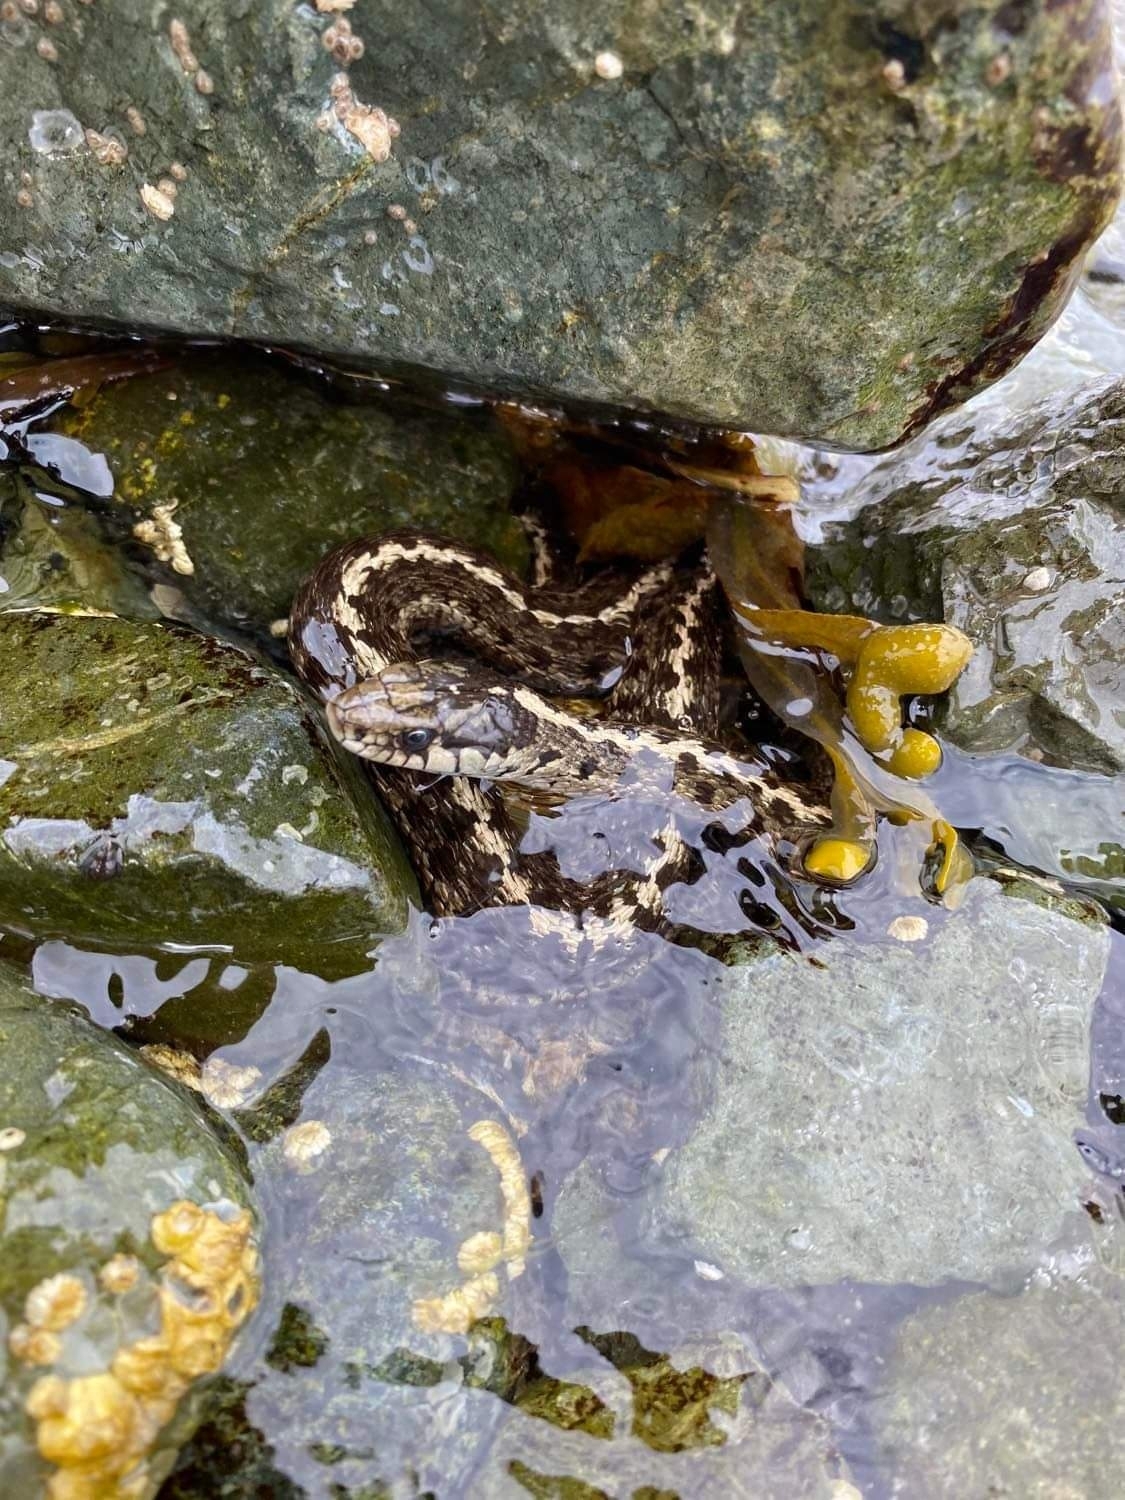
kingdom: Animalia
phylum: Chordata
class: Squamata
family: Colubridae
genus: Thamnophis
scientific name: Thamnophis elegans
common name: Western terrestrial garter snake
